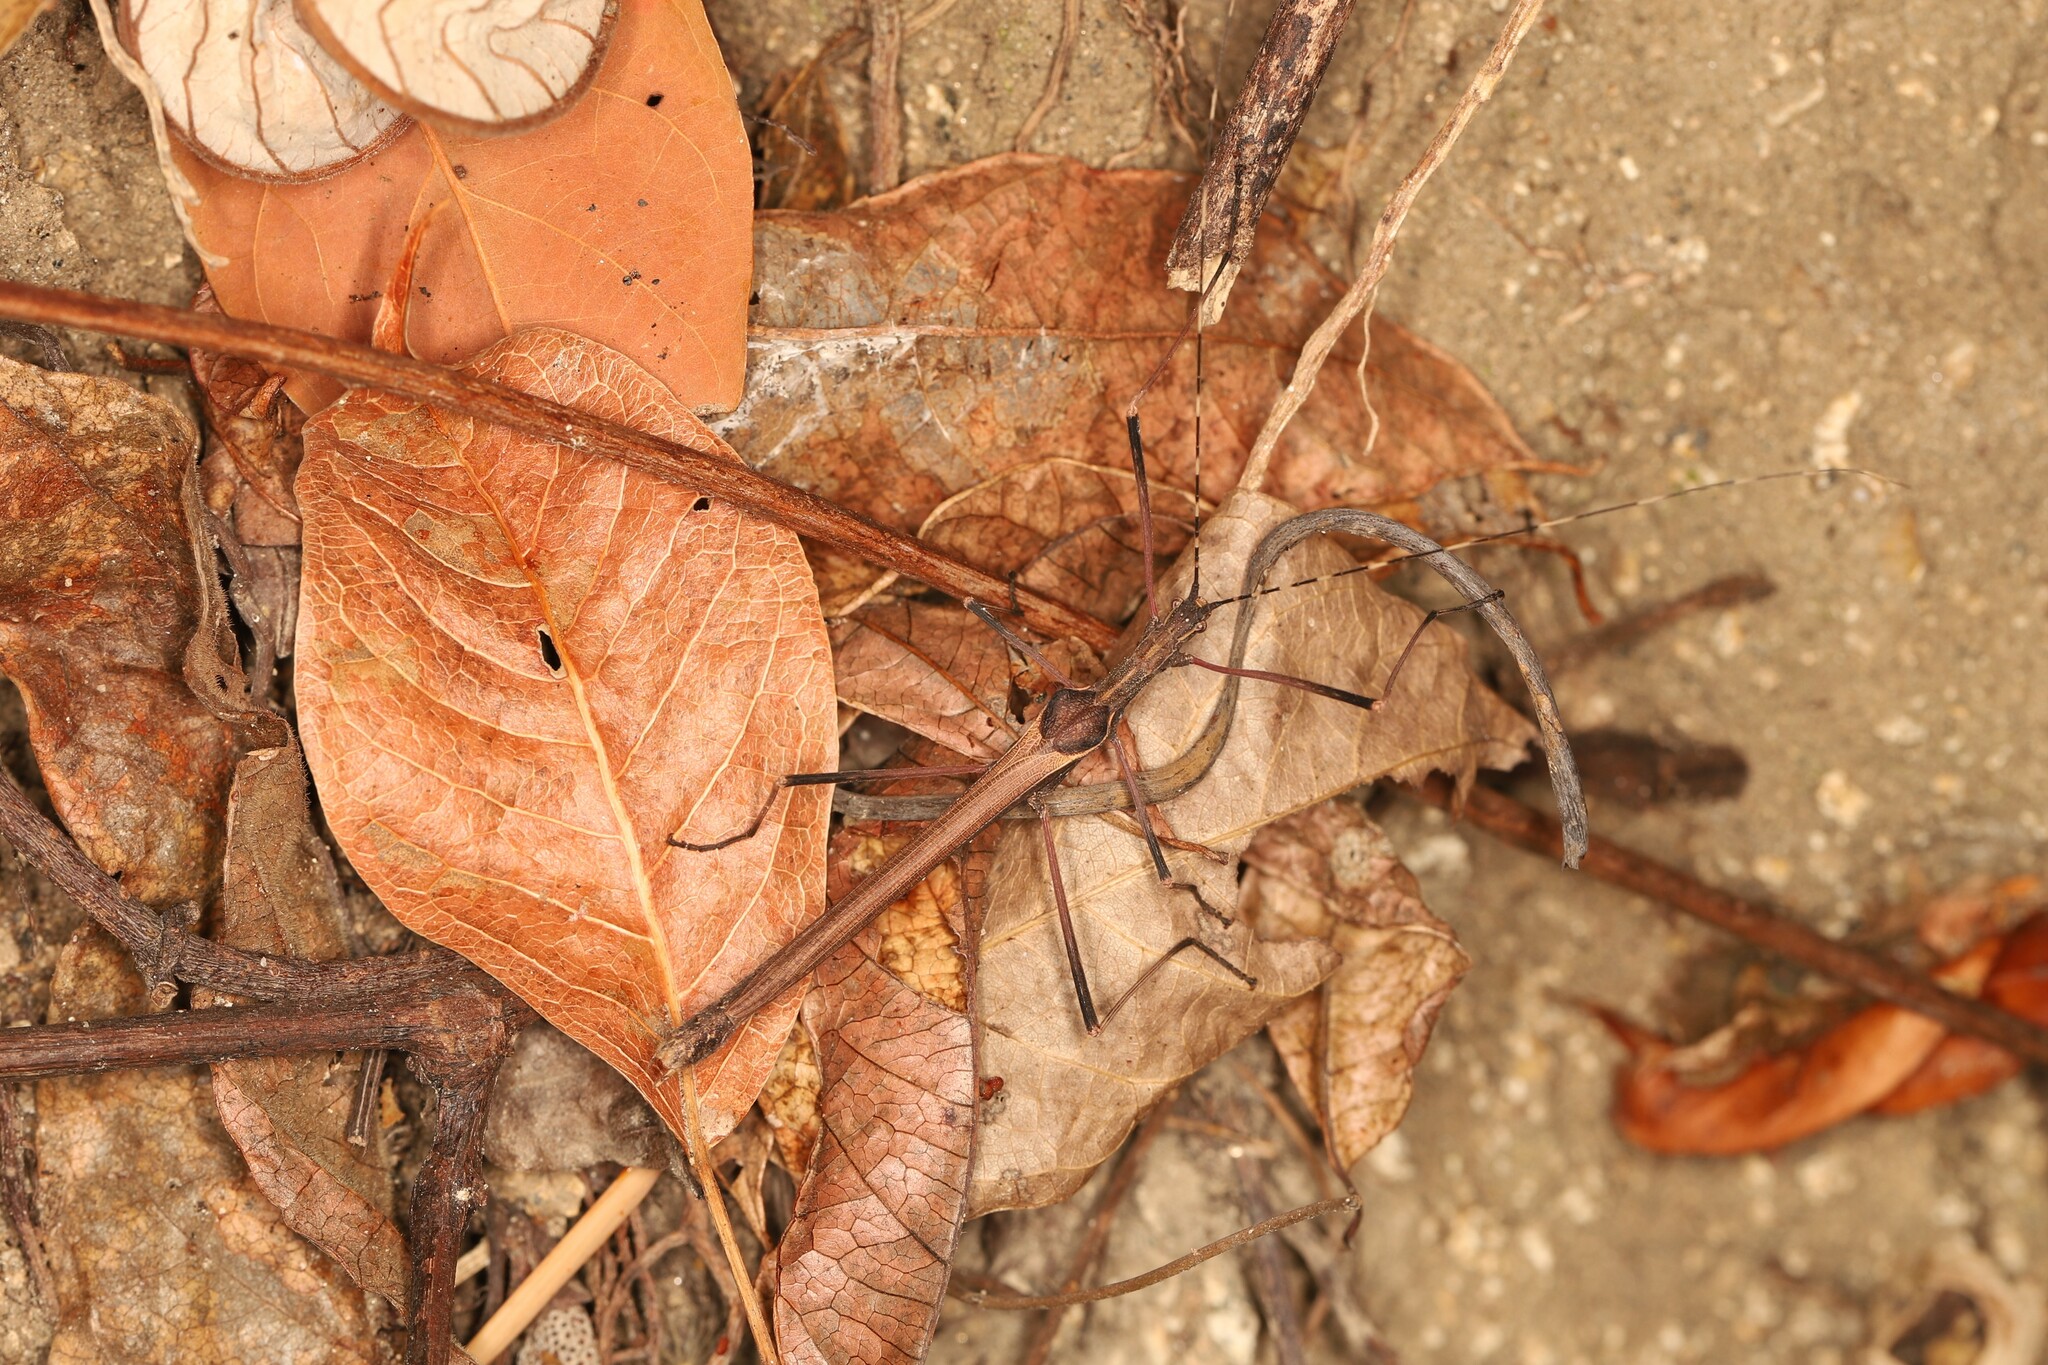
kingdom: Animalia
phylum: Arthropoda
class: Insecta
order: Phasmida
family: Pseudophasmatidae
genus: Pseudophasma
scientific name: Pseudophasma menius
